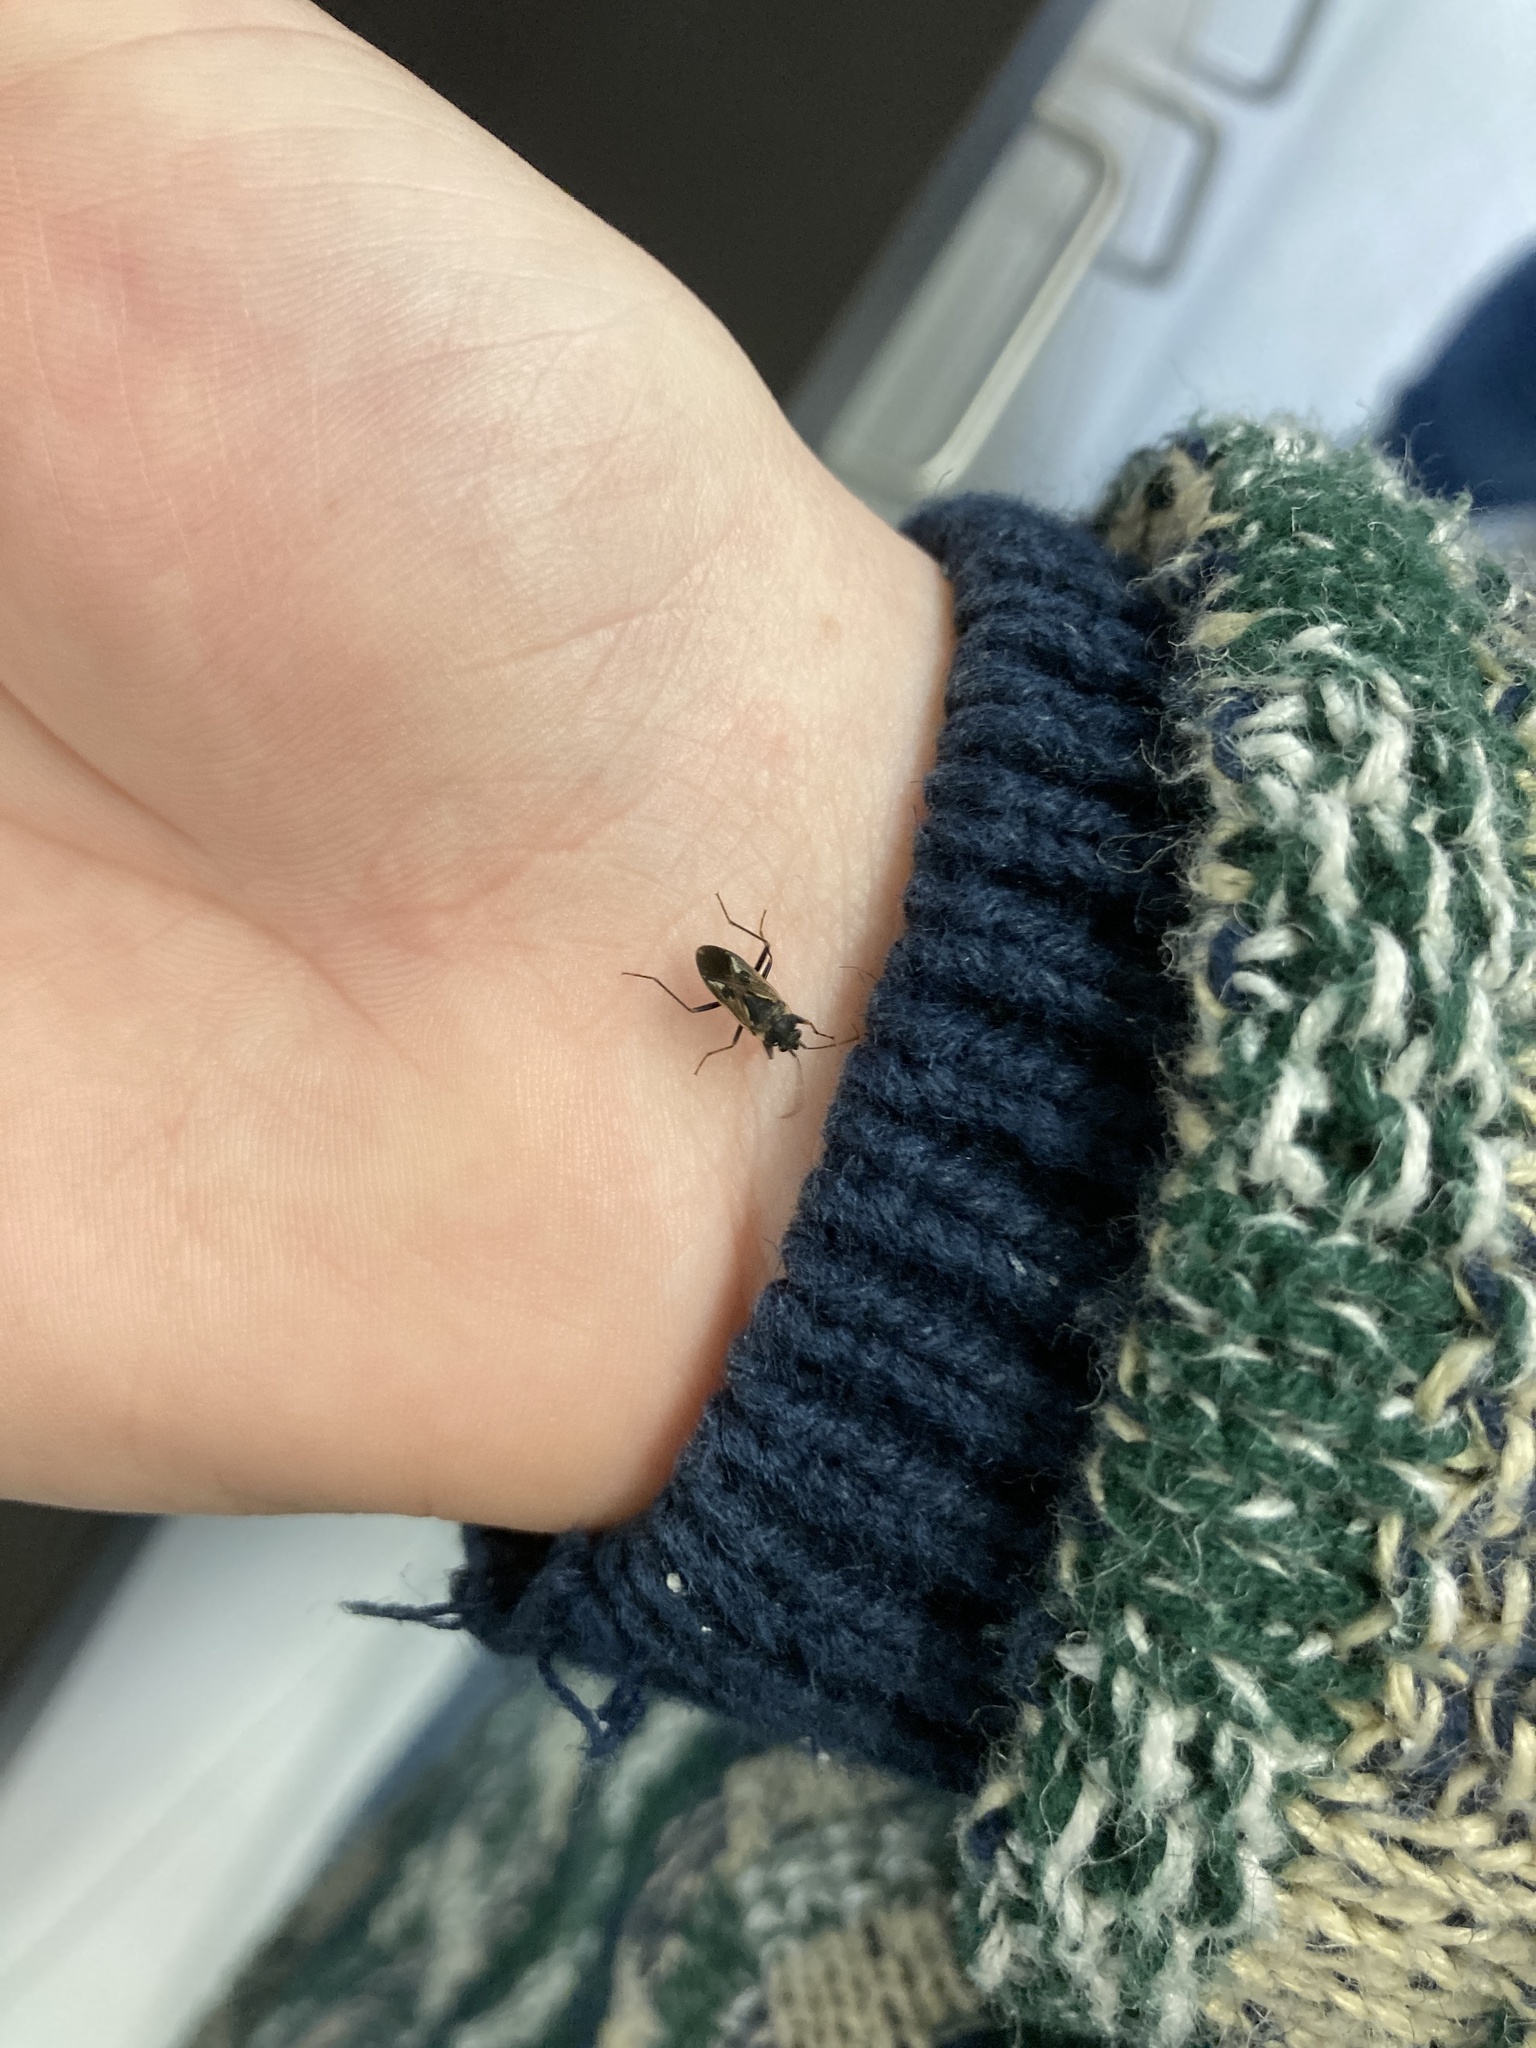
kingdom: Animalia
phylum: Arthropoda
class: Insecta
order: Hemiptera
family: Rhyparochromidae
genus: Rhyparochromus
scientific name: Rhyparochromus vulgaris
